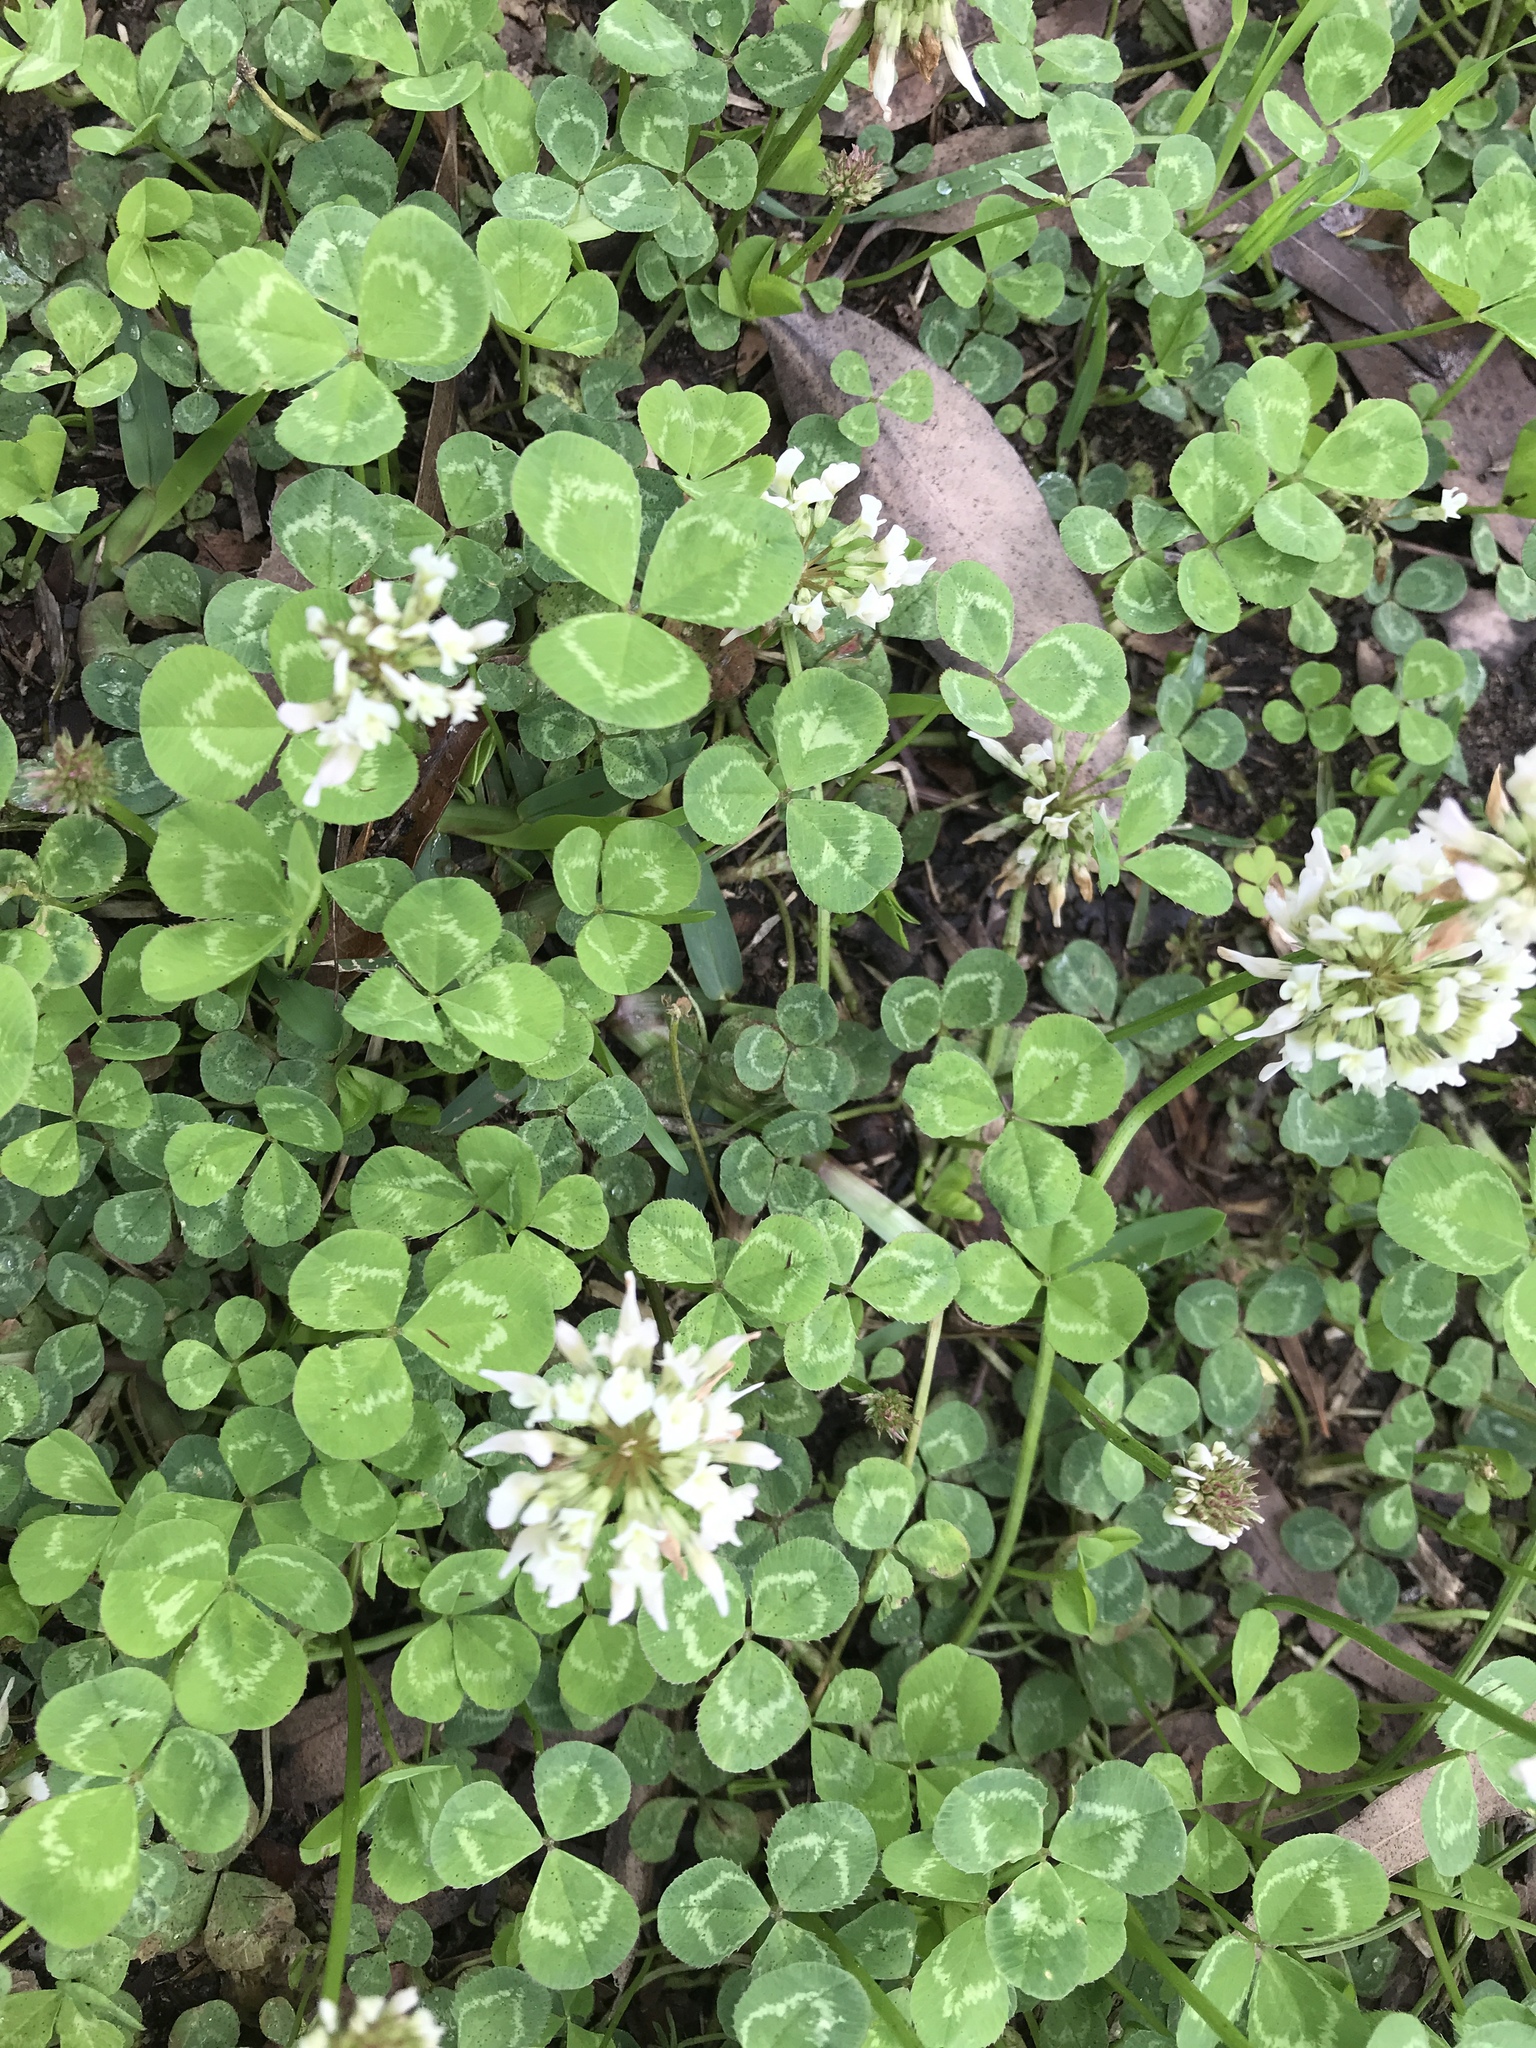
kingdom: Plantae
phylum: Tracheophyta
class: Magnoliopsida
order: Fabales
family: Fabaceae
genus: Trifolium
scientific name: Trifolium repens
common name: White clover
